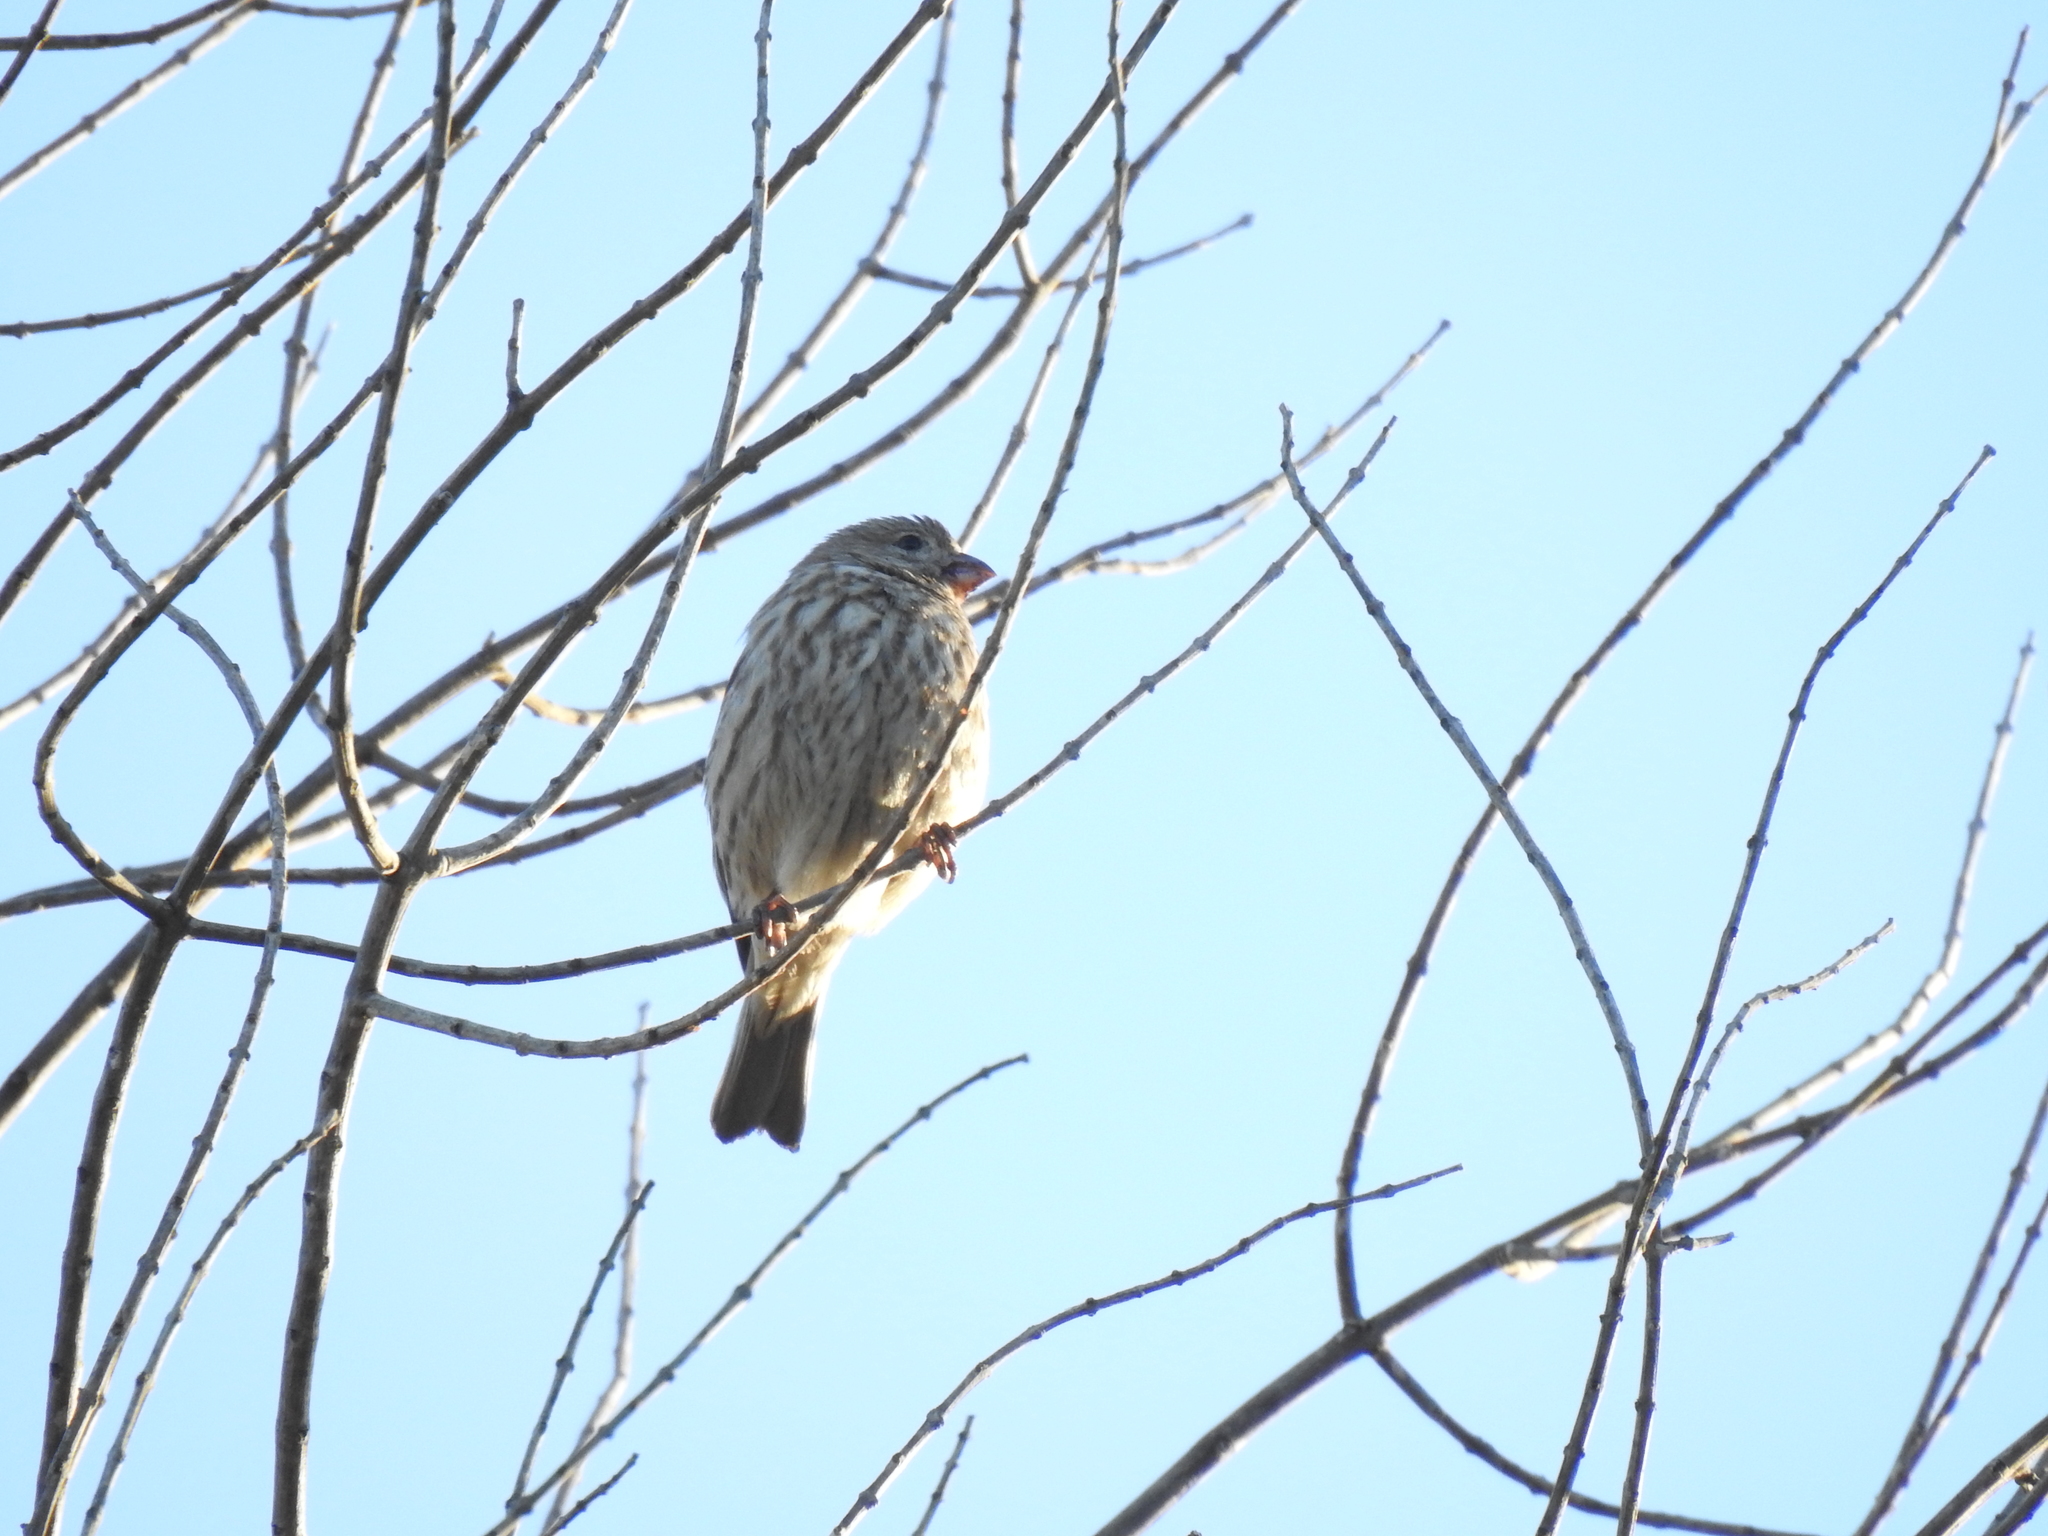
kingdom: Animalia
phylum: Chordata
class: Aves
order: Passeriformes
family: Fringillidae
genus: Haemorhous
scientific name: Haemorhous mexicanus
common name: House finch
